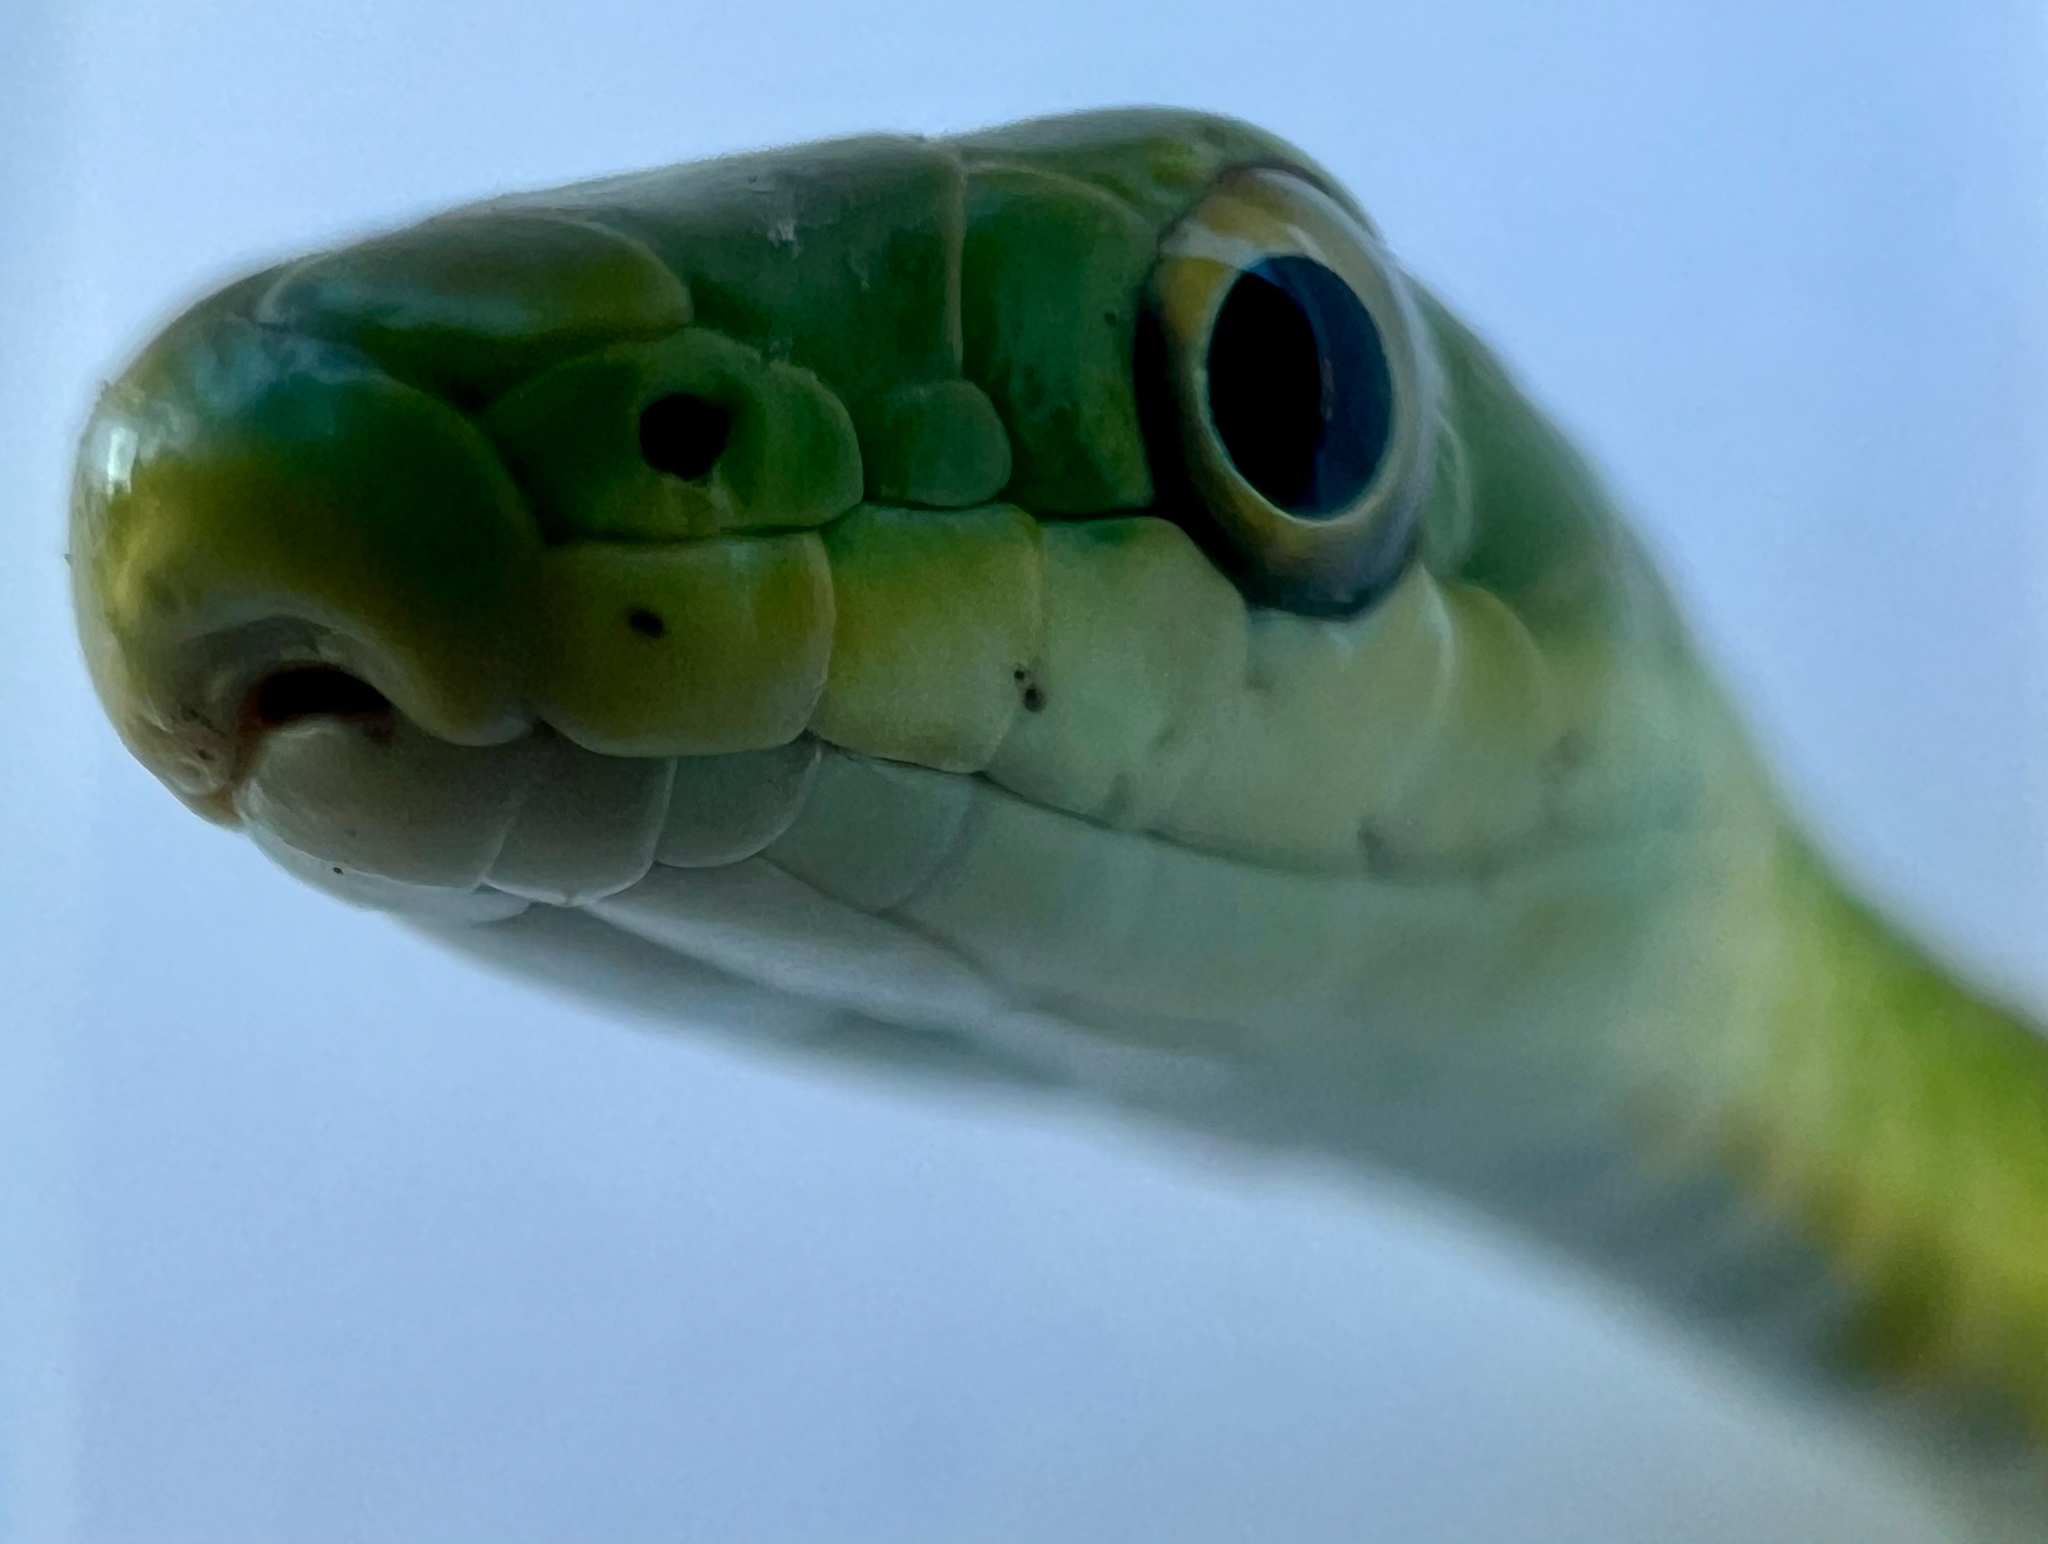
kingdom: Animalia
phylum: Chordata
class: Squamata
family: Colubridae
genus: Opheodrys
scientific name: Opheodrys aestivus
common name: Rough greensnake
